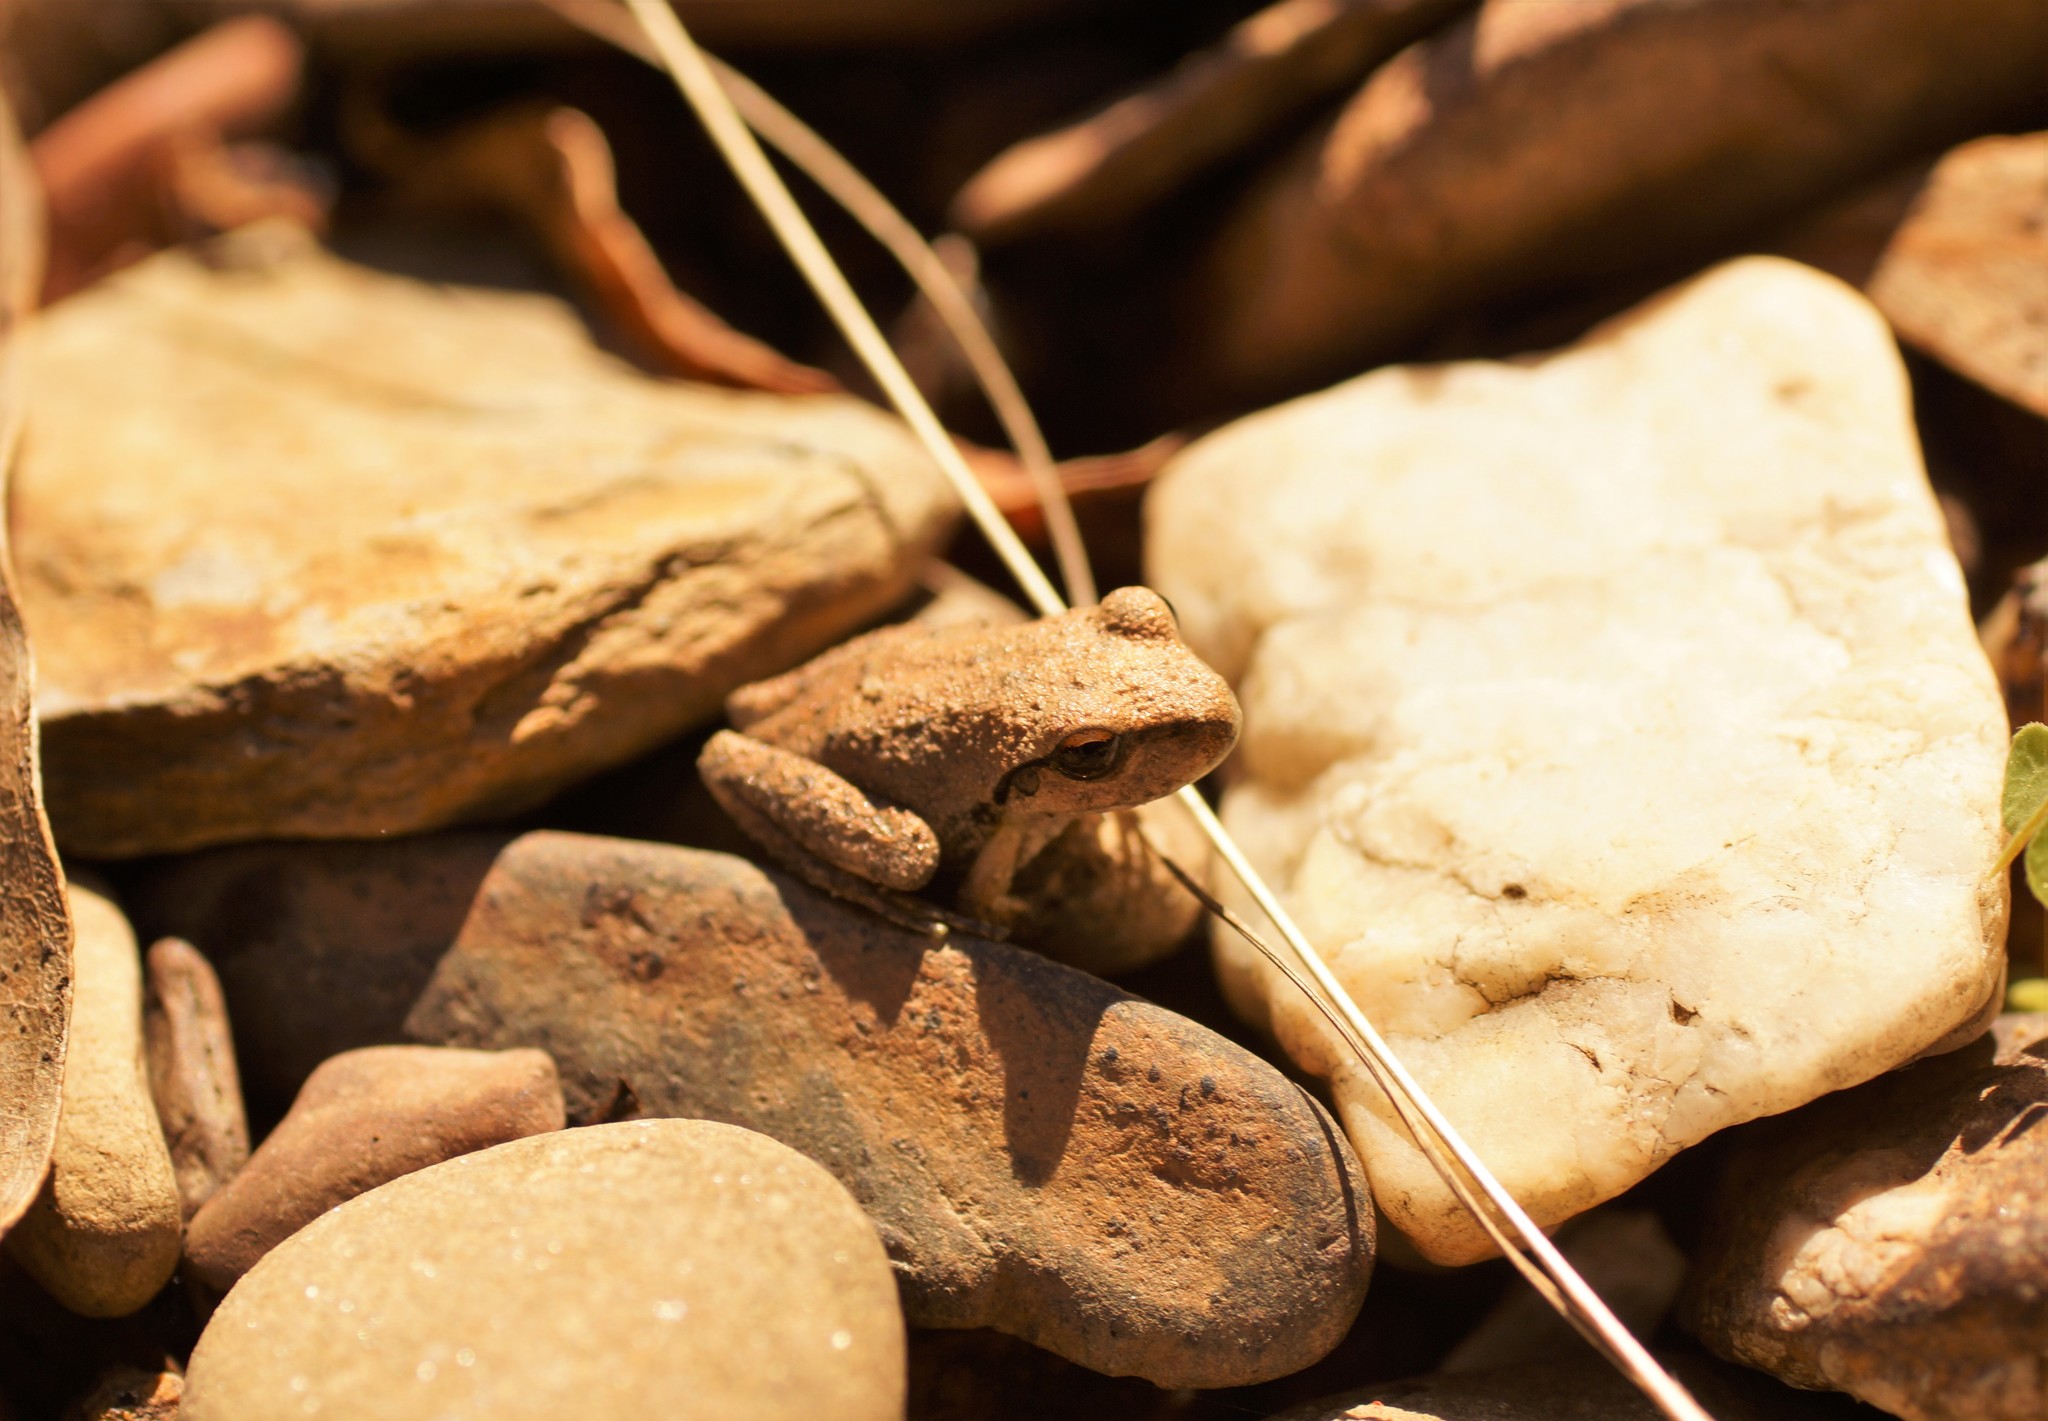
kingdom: Animalia
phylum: Chordata
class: Amphibia
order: Anura
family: Pelodryadidae
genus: Ranoidea
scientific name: Ranoidea lesueurii
